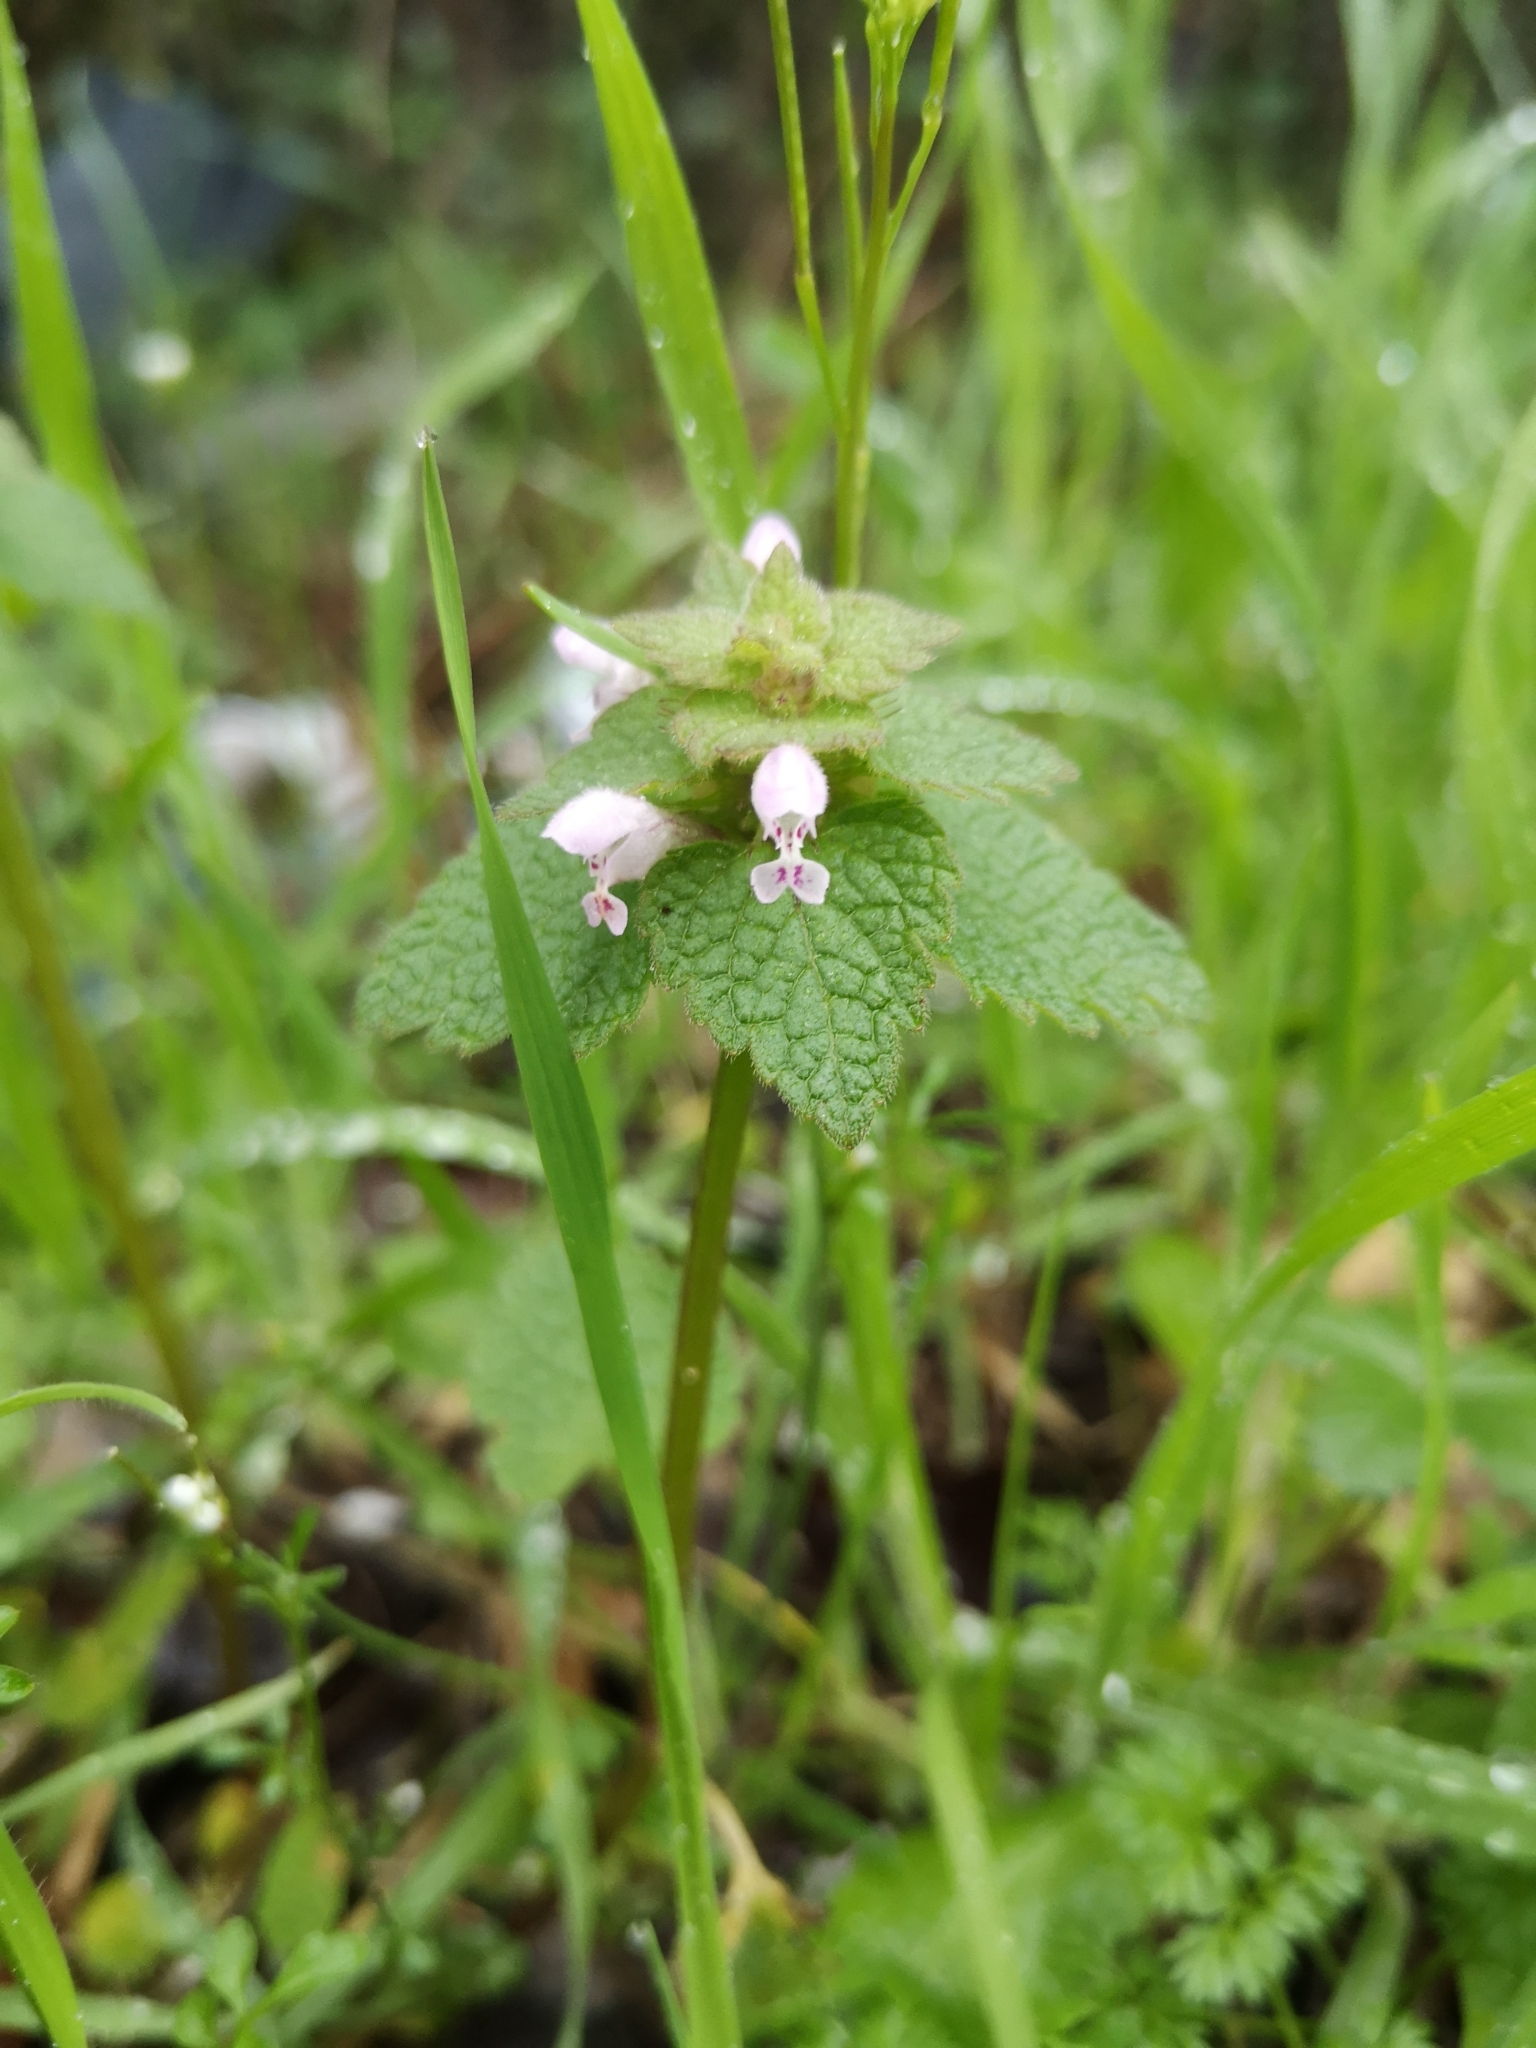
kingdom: Plantae
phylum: Tracheophyta
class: Magnoliopsida
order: Lamiales
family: Lamiaceae
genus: Lamium
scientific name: Lamium purpureum
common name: Red dead-nettle
